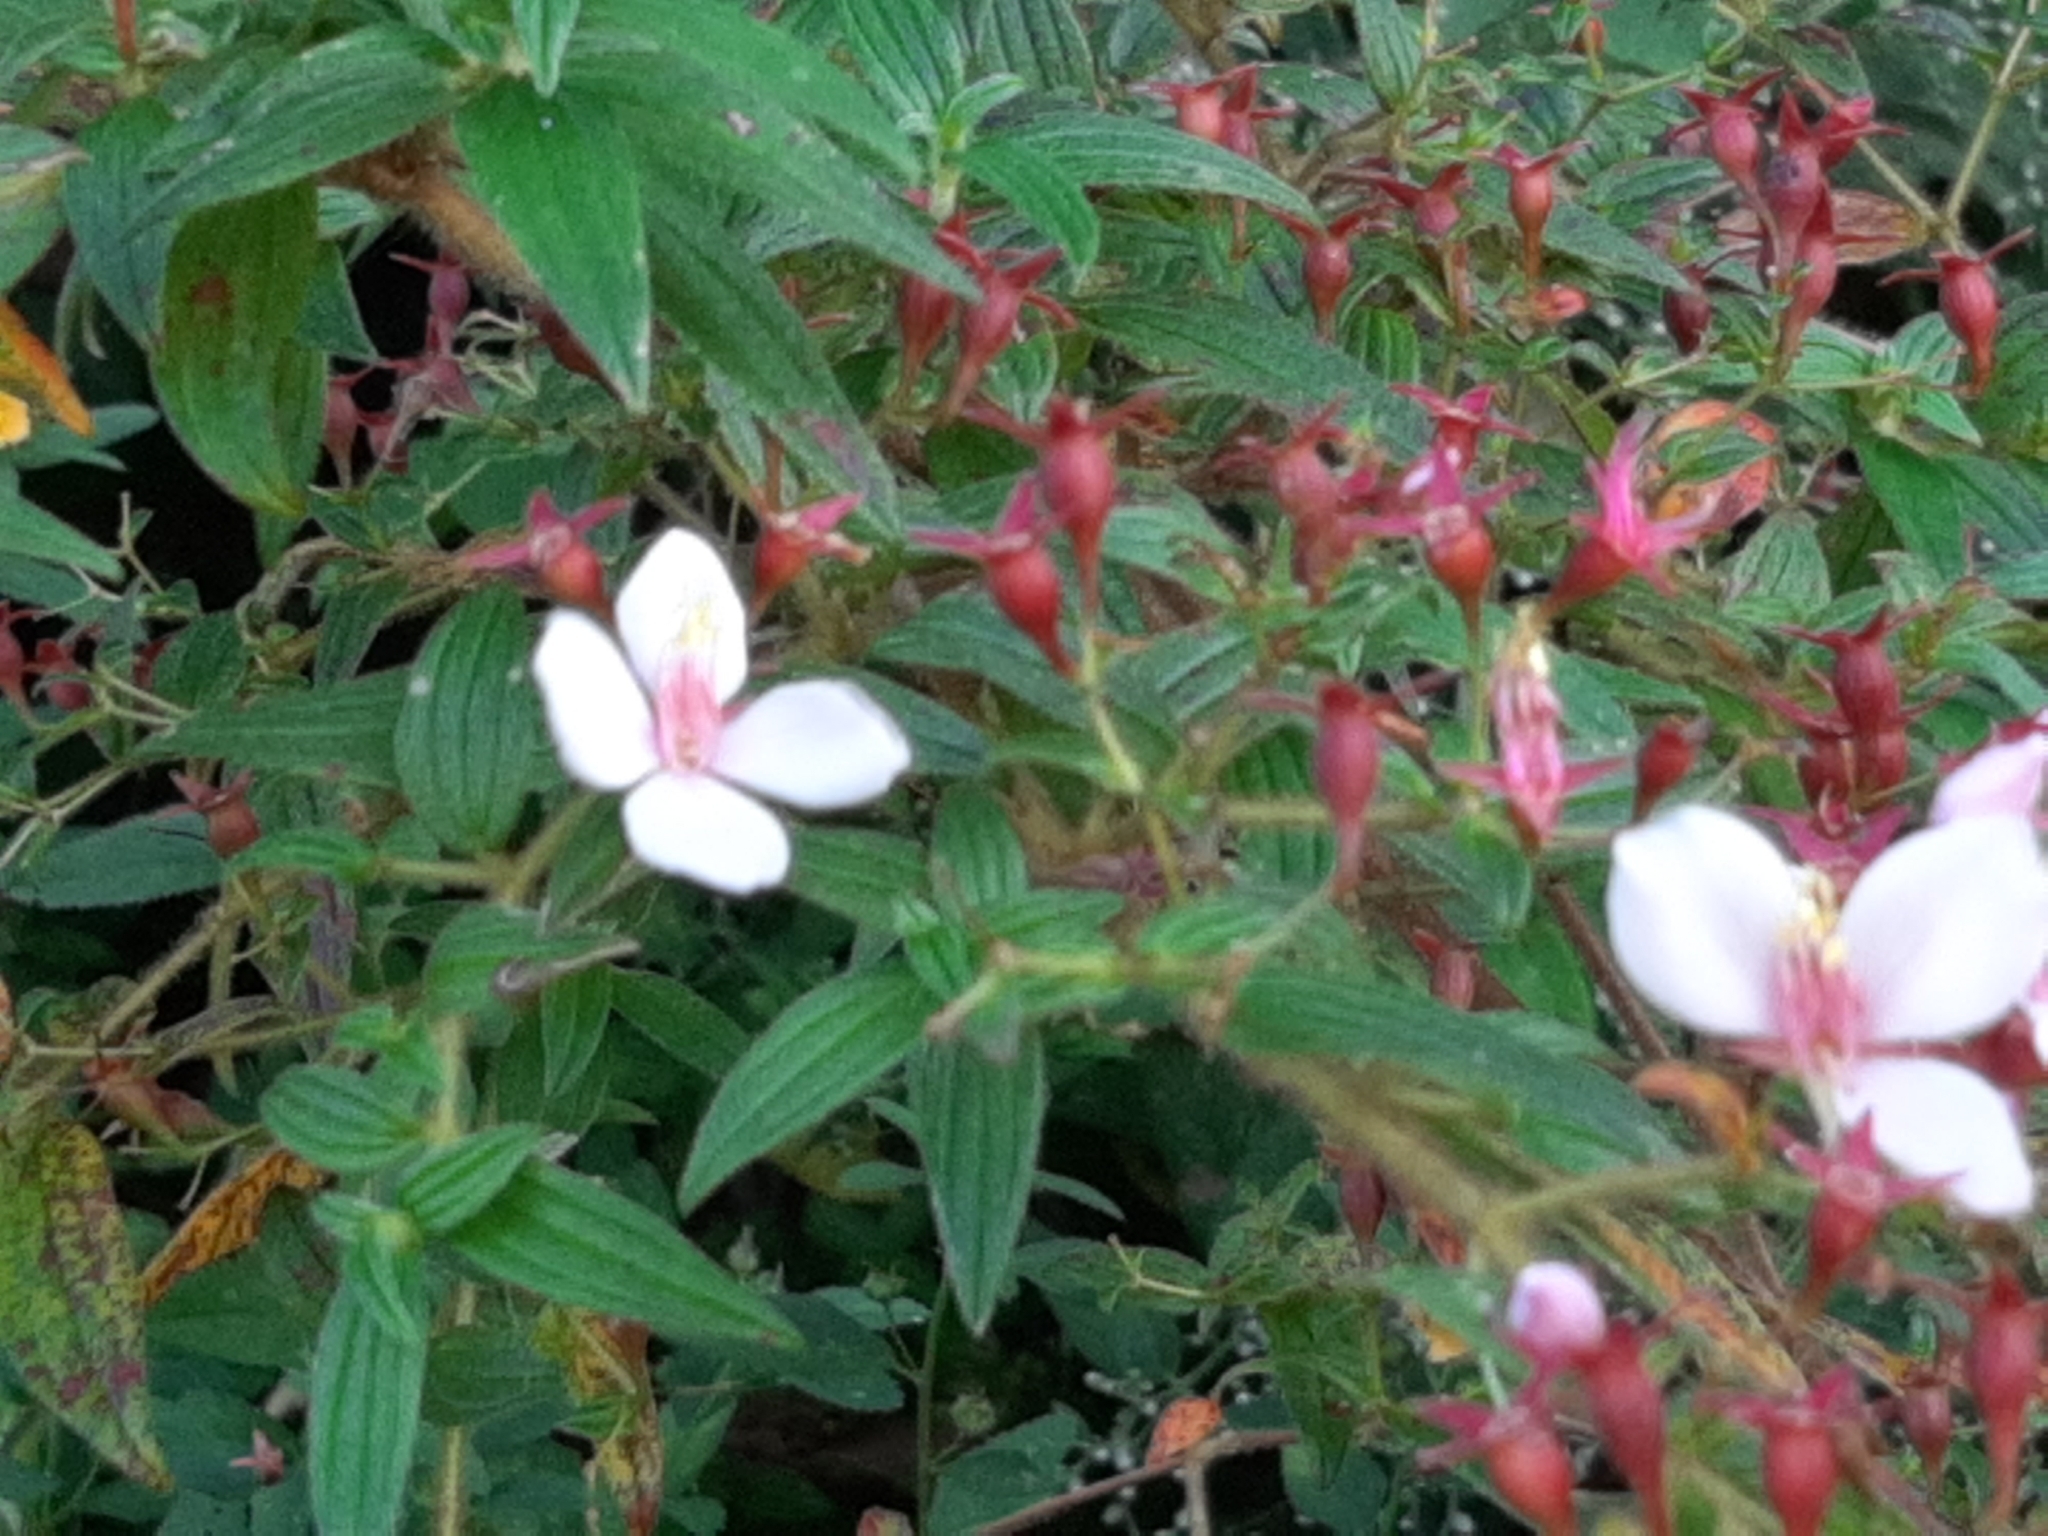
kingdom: Plantae
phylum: Tracheophyta
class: Magnoliopsida
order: Myrtales
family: Melastomataceae
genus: Monochaetum
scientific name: Monochaetum floribundum
